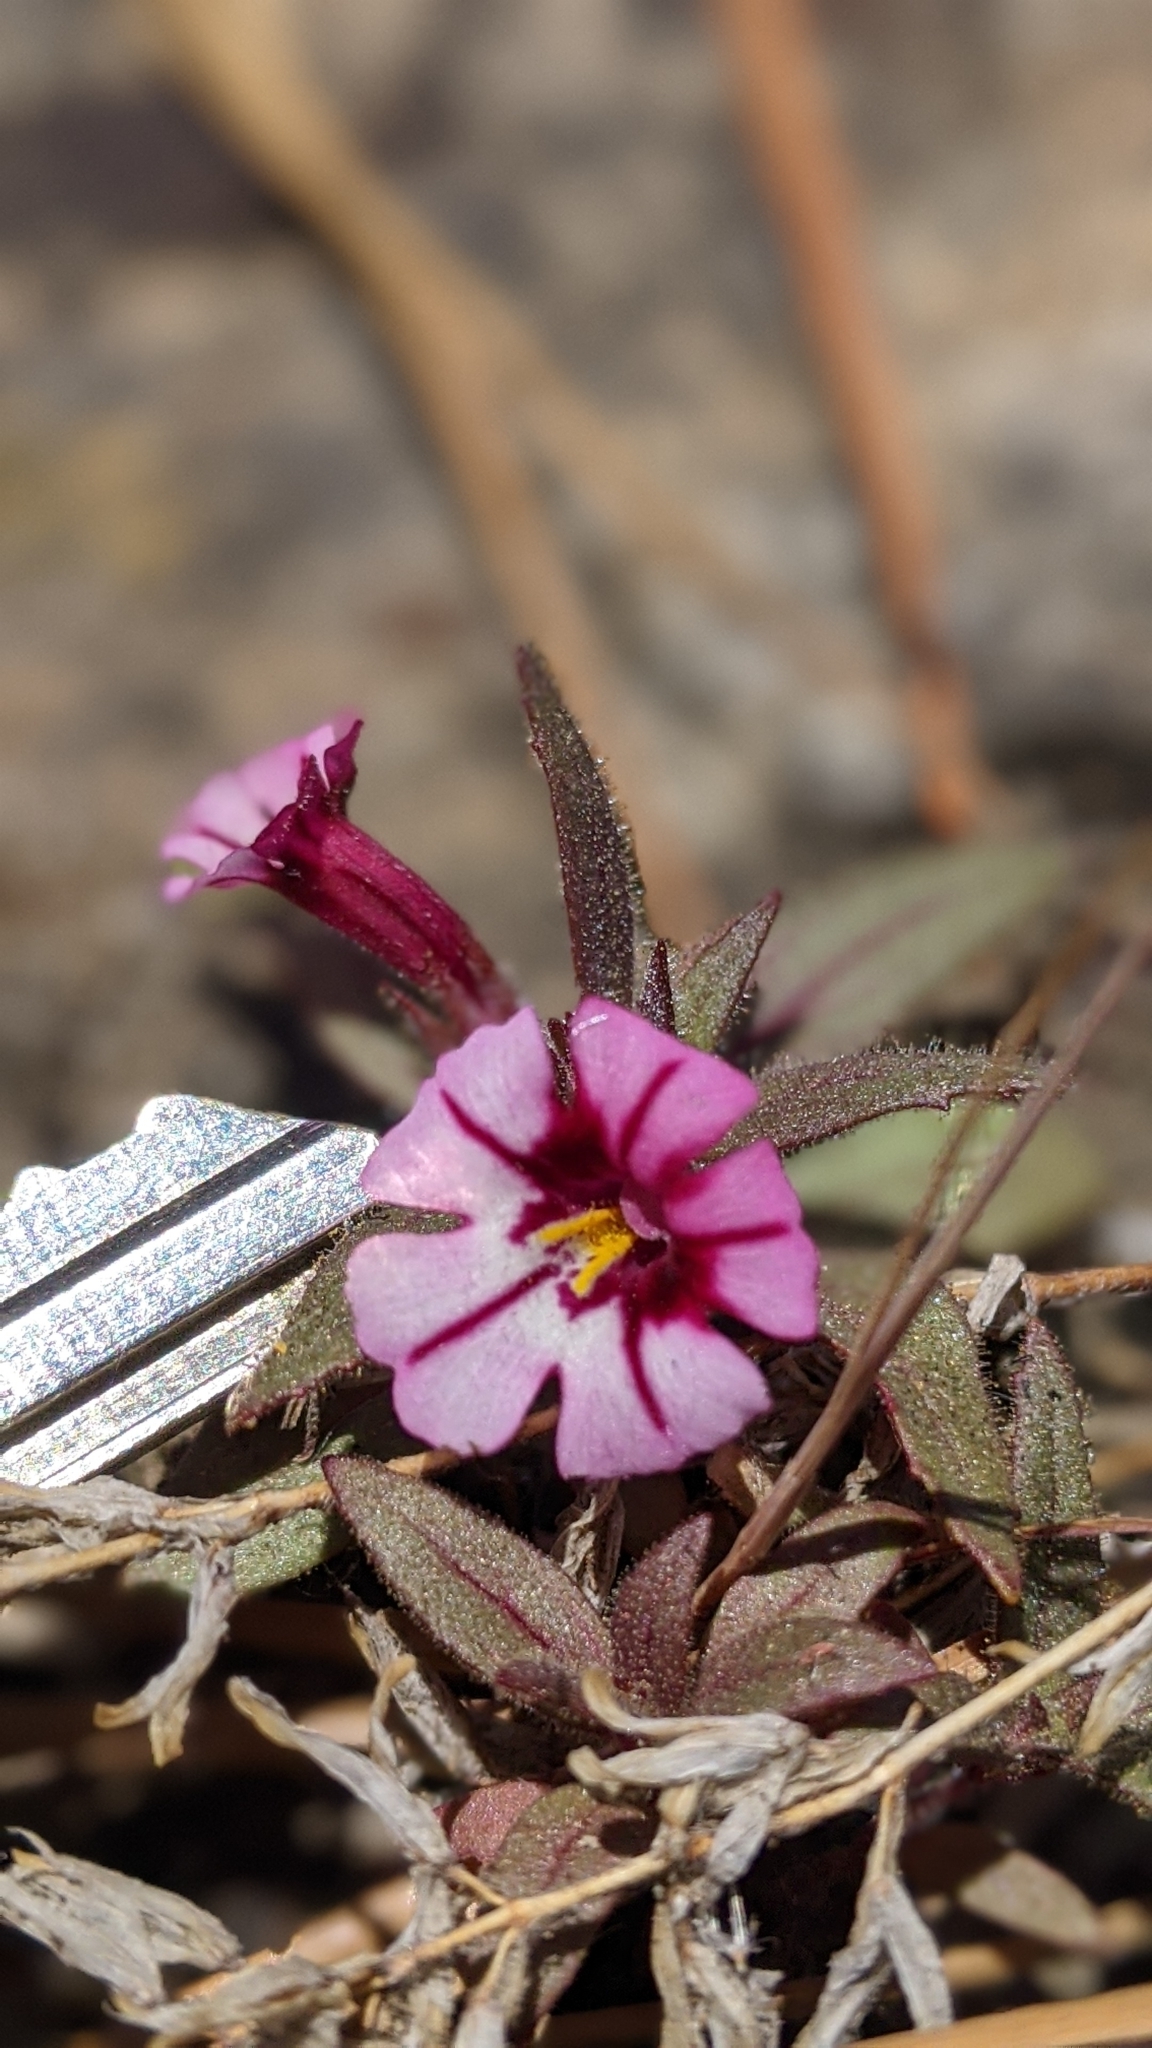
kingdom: Plantae
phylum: Tracheophyta
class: Magnoliopsida
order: Lamiales
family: Phrymaceae
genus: Diplacus
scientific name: Diplacus graniticola
